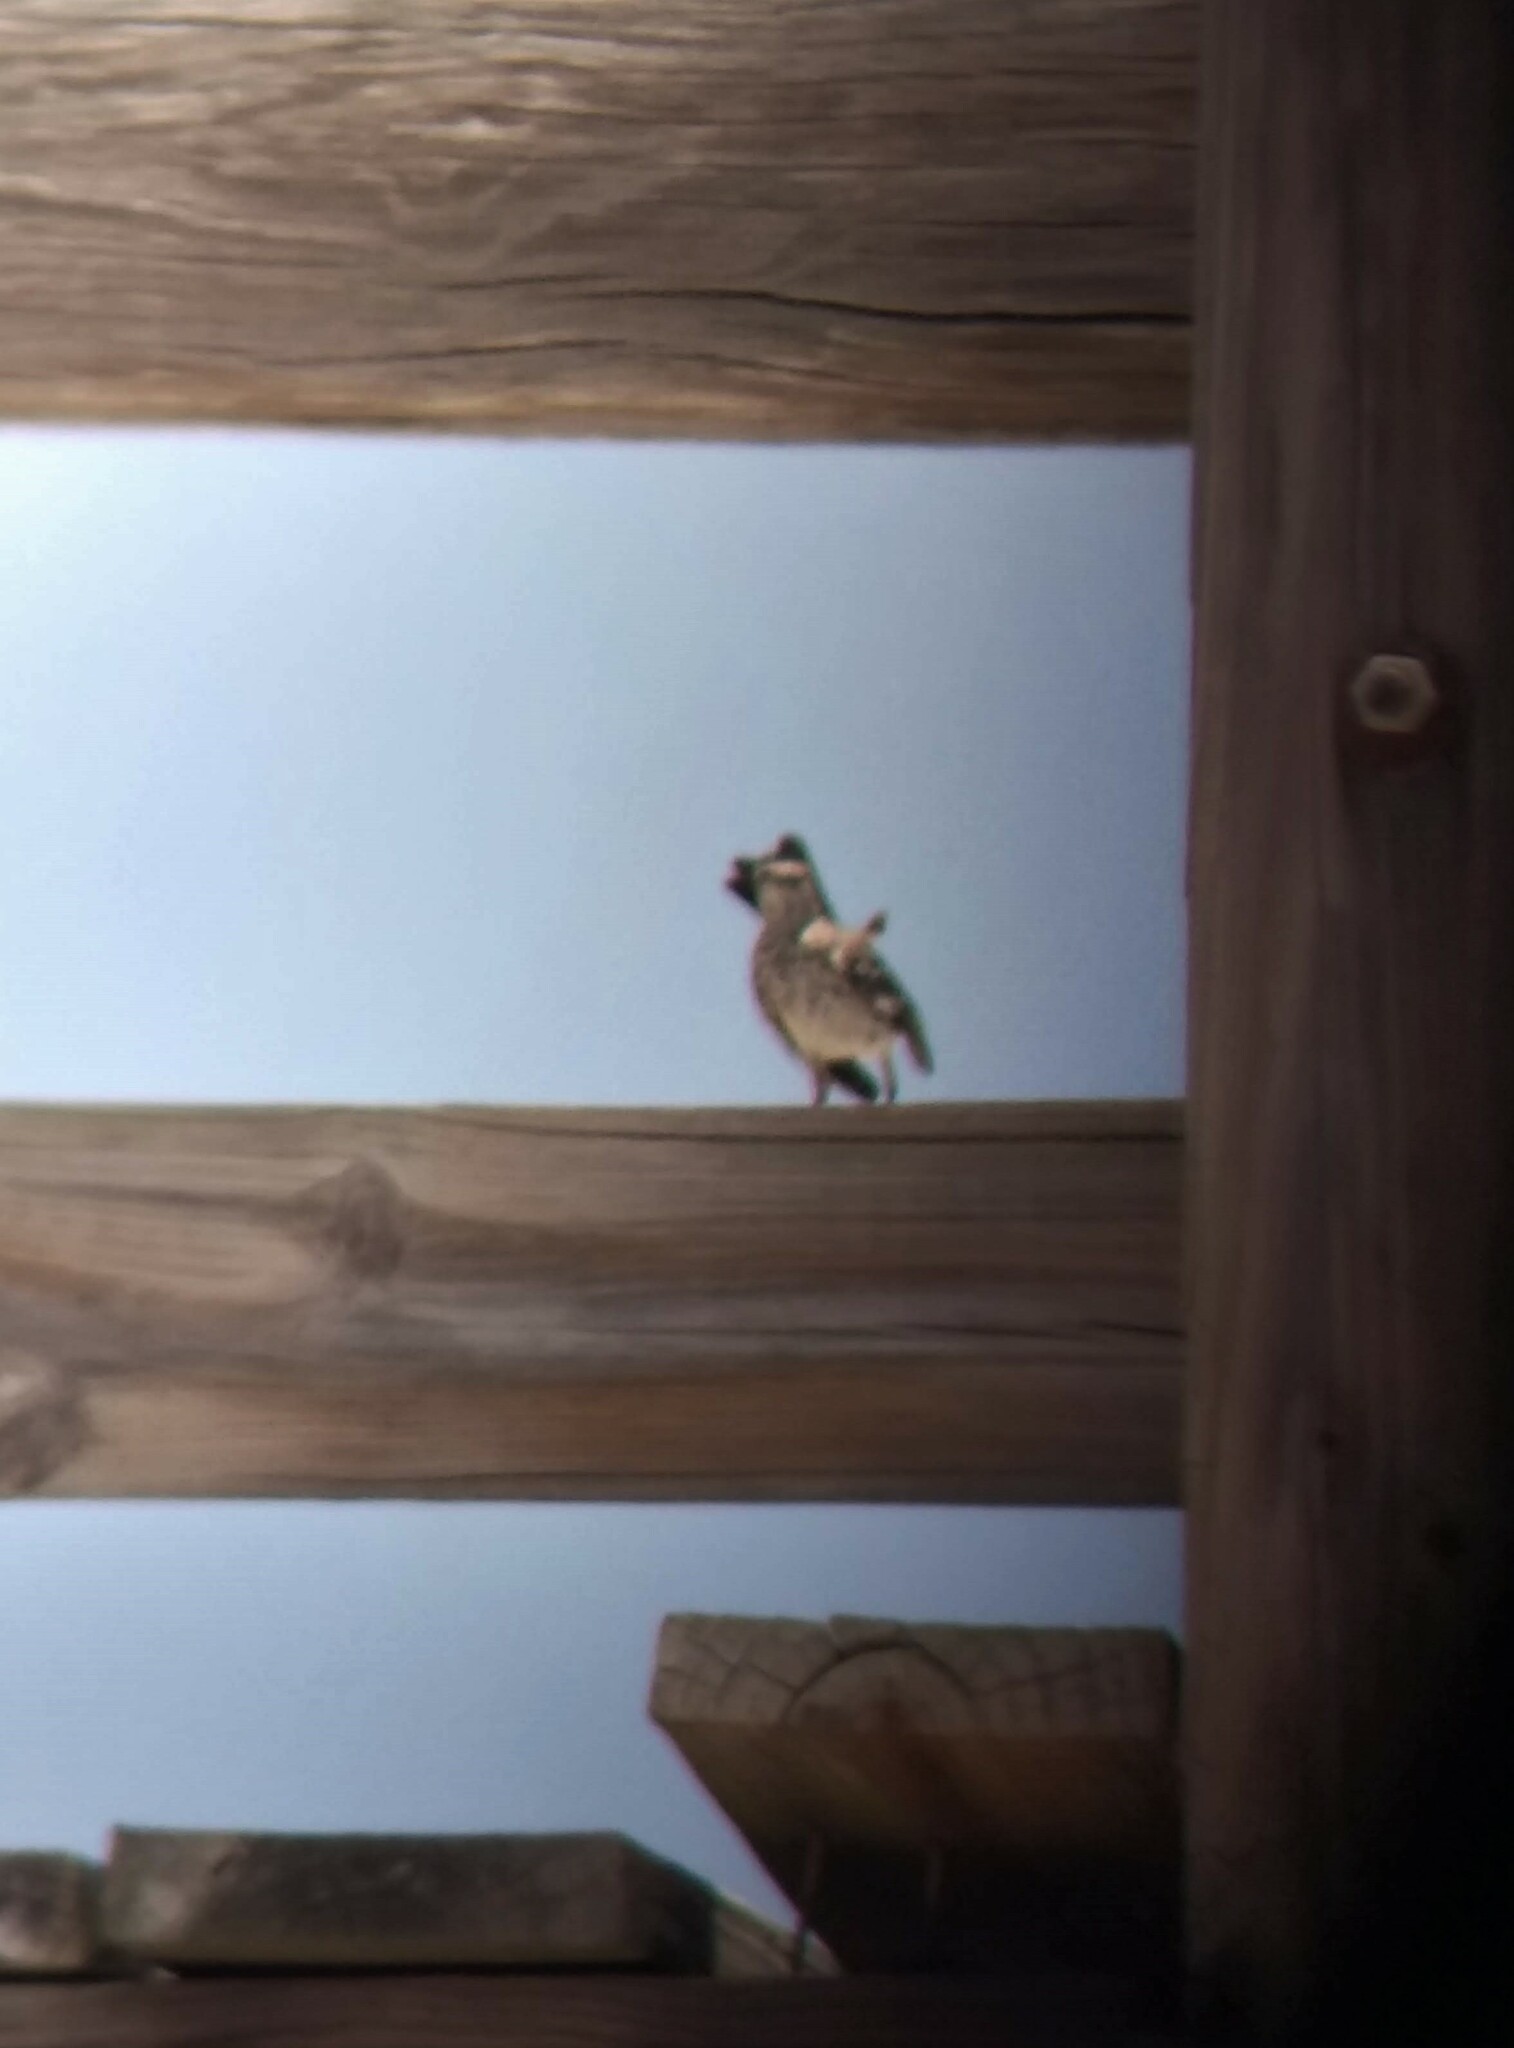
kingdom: Animalia
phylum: Chordata
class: Aves
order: Passeriformes
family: Mimidae
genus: Mimus
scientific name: Mimus polyglottos
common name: Northern mockingbird
